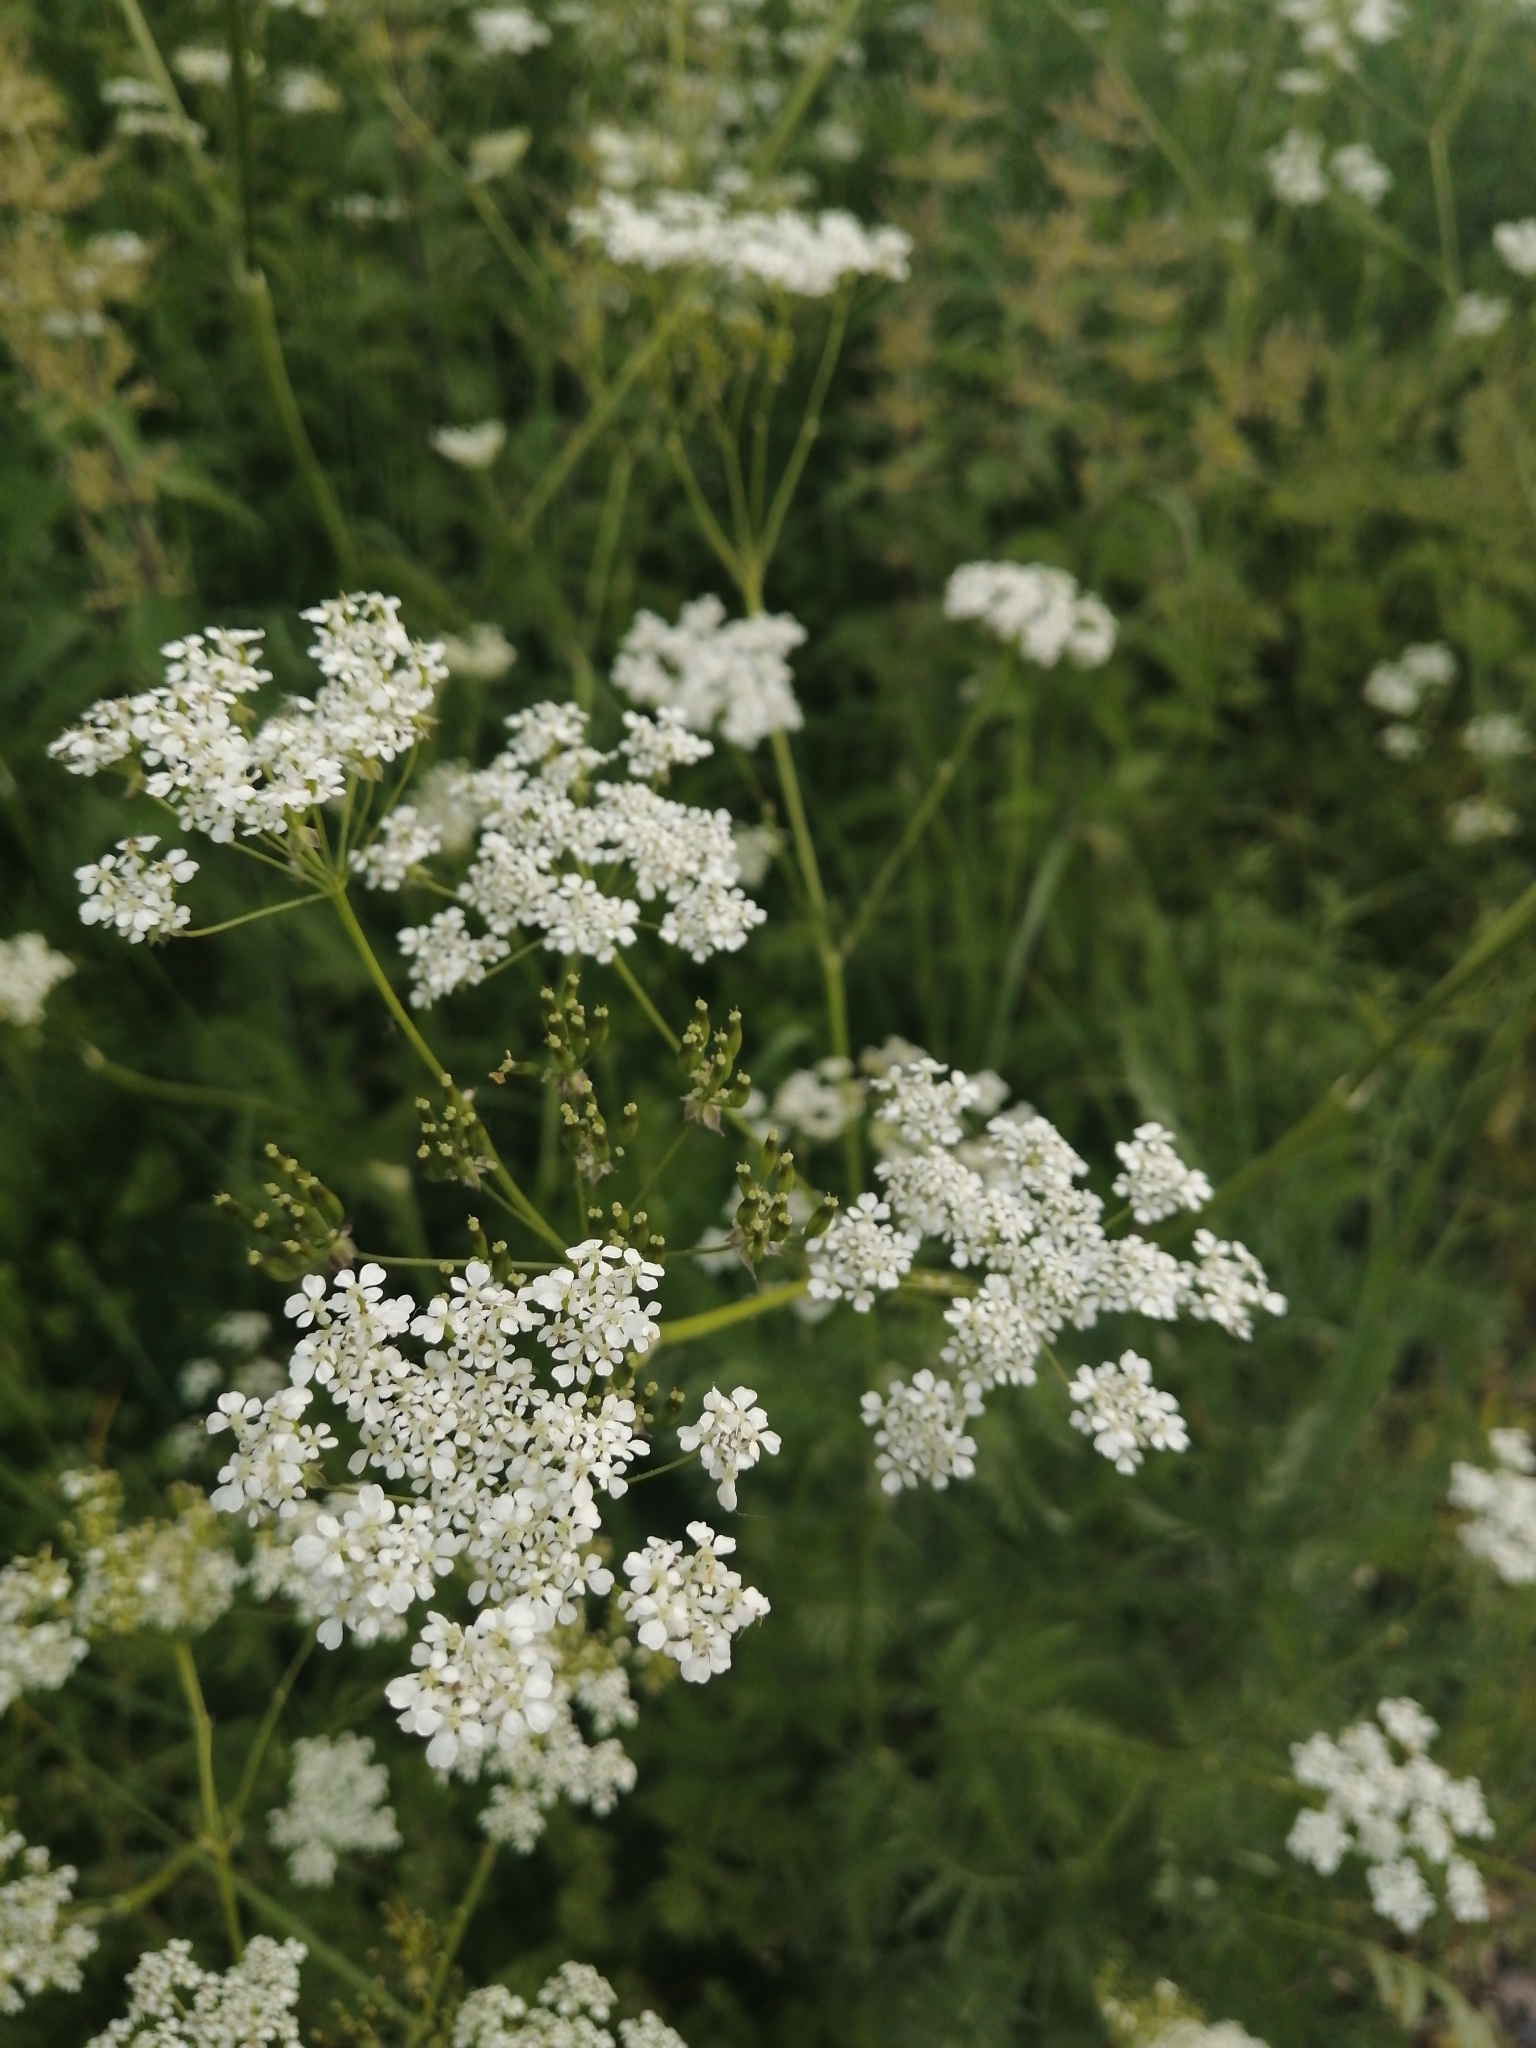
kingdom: Plantae
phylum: Tracheophyta
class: Magnoliopsida
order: Apiales
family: Apiaceae
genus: Anthriscus
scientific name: Anthriscus sylvestris
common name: Cow parsley
